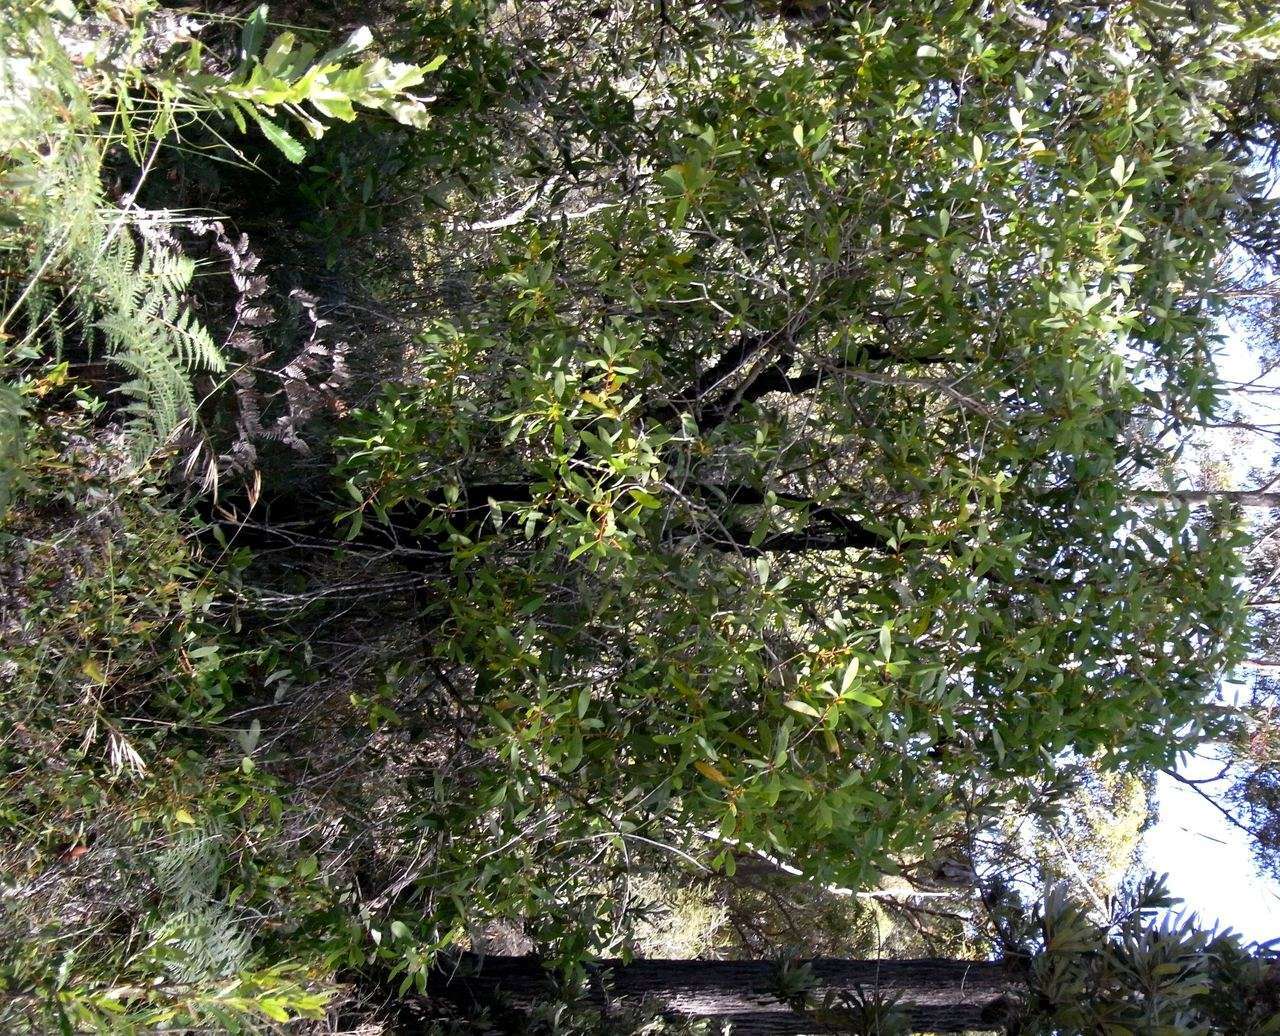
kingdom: Plantae
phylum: Tracheophyta
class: Magnoliopsida
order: Proteales
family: Proteaceae
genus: Persoonia
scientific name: Persoonia levis
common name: Smooth geebung
